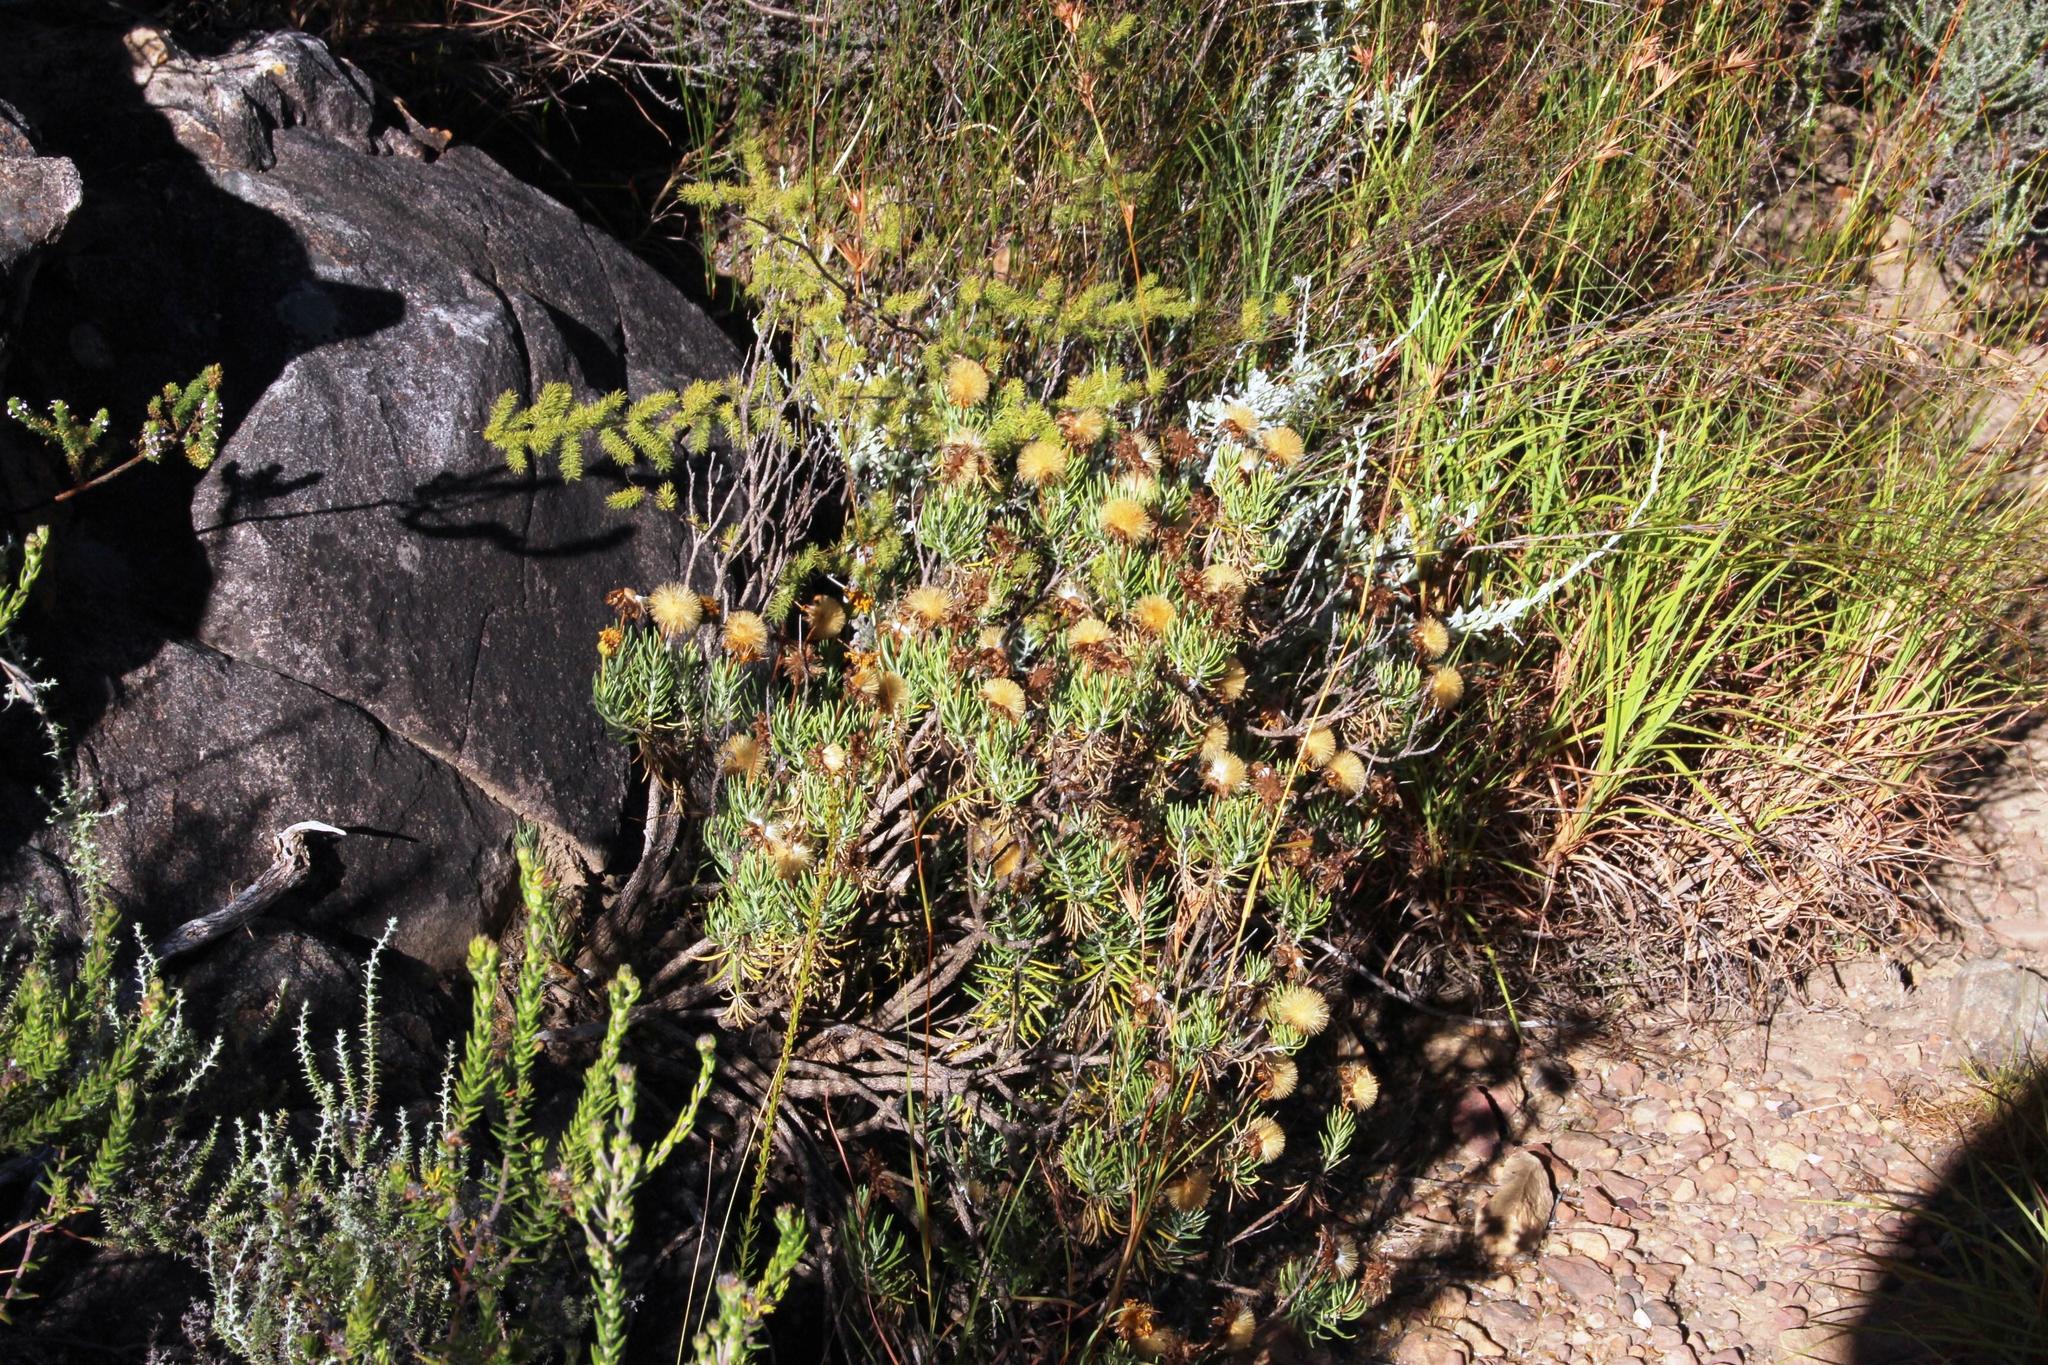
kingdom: Plantae
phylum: Tracheophyta
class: Magnoliopsida
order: Asterales
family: Asteraceae
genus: Heterolepis
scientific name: Heterolepis aliena
